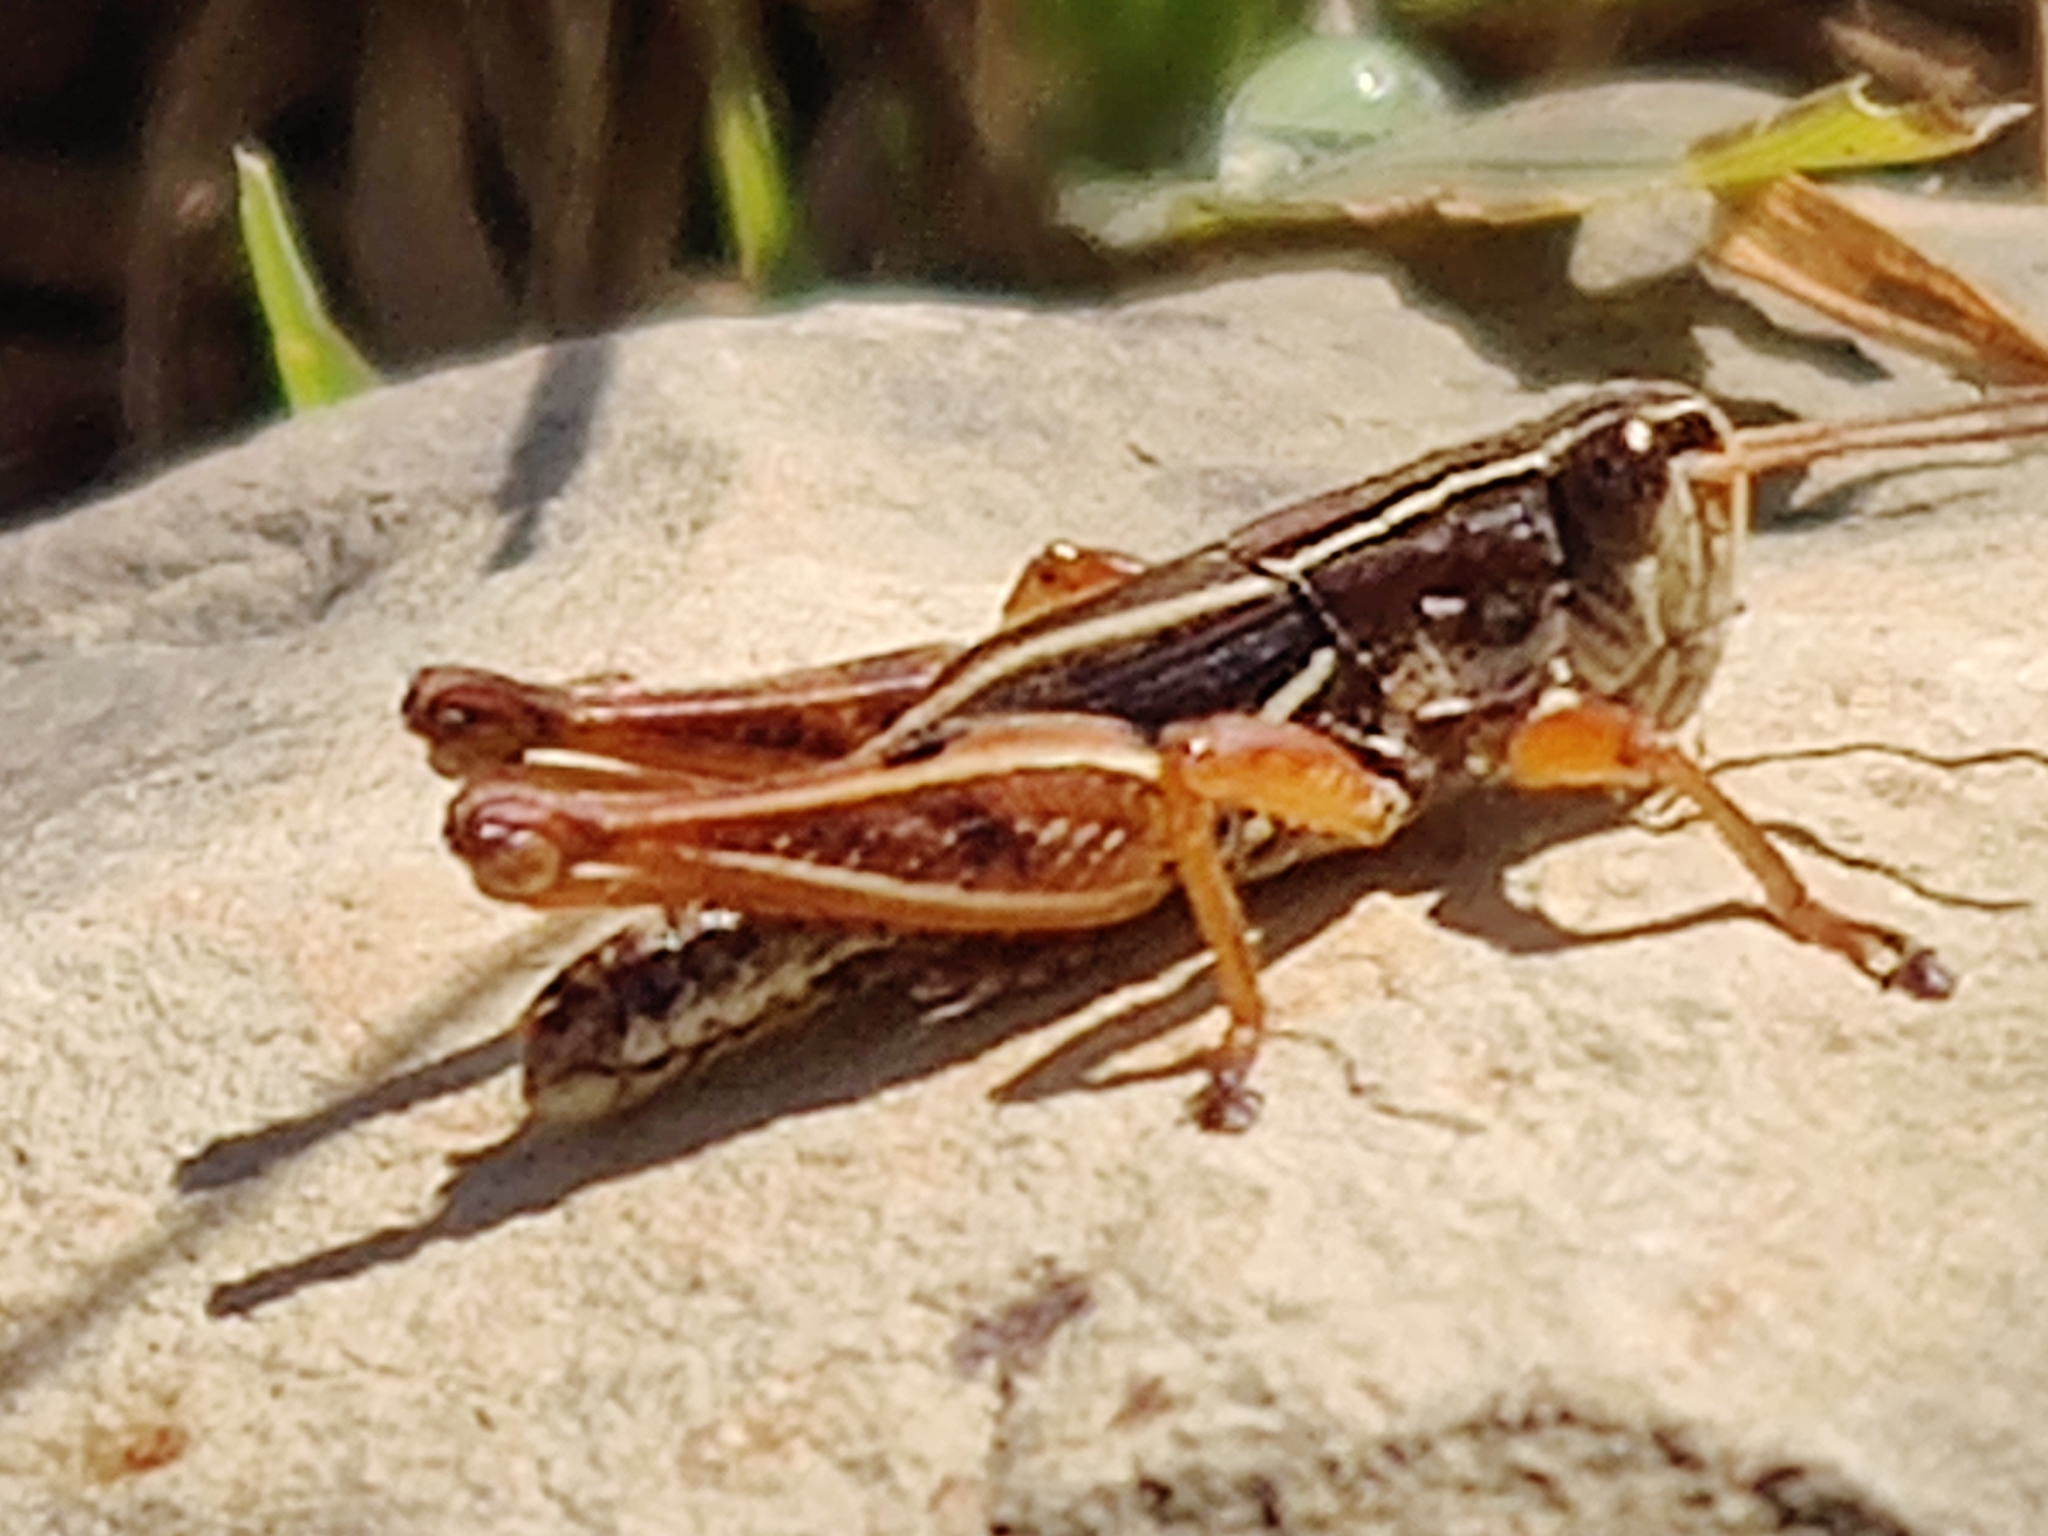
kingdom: Animalia
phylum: Arthropoda
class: Insecta
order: Orthoptera
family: Acrididae
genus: Phaulacridium
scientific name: Phaulacridium marginale
